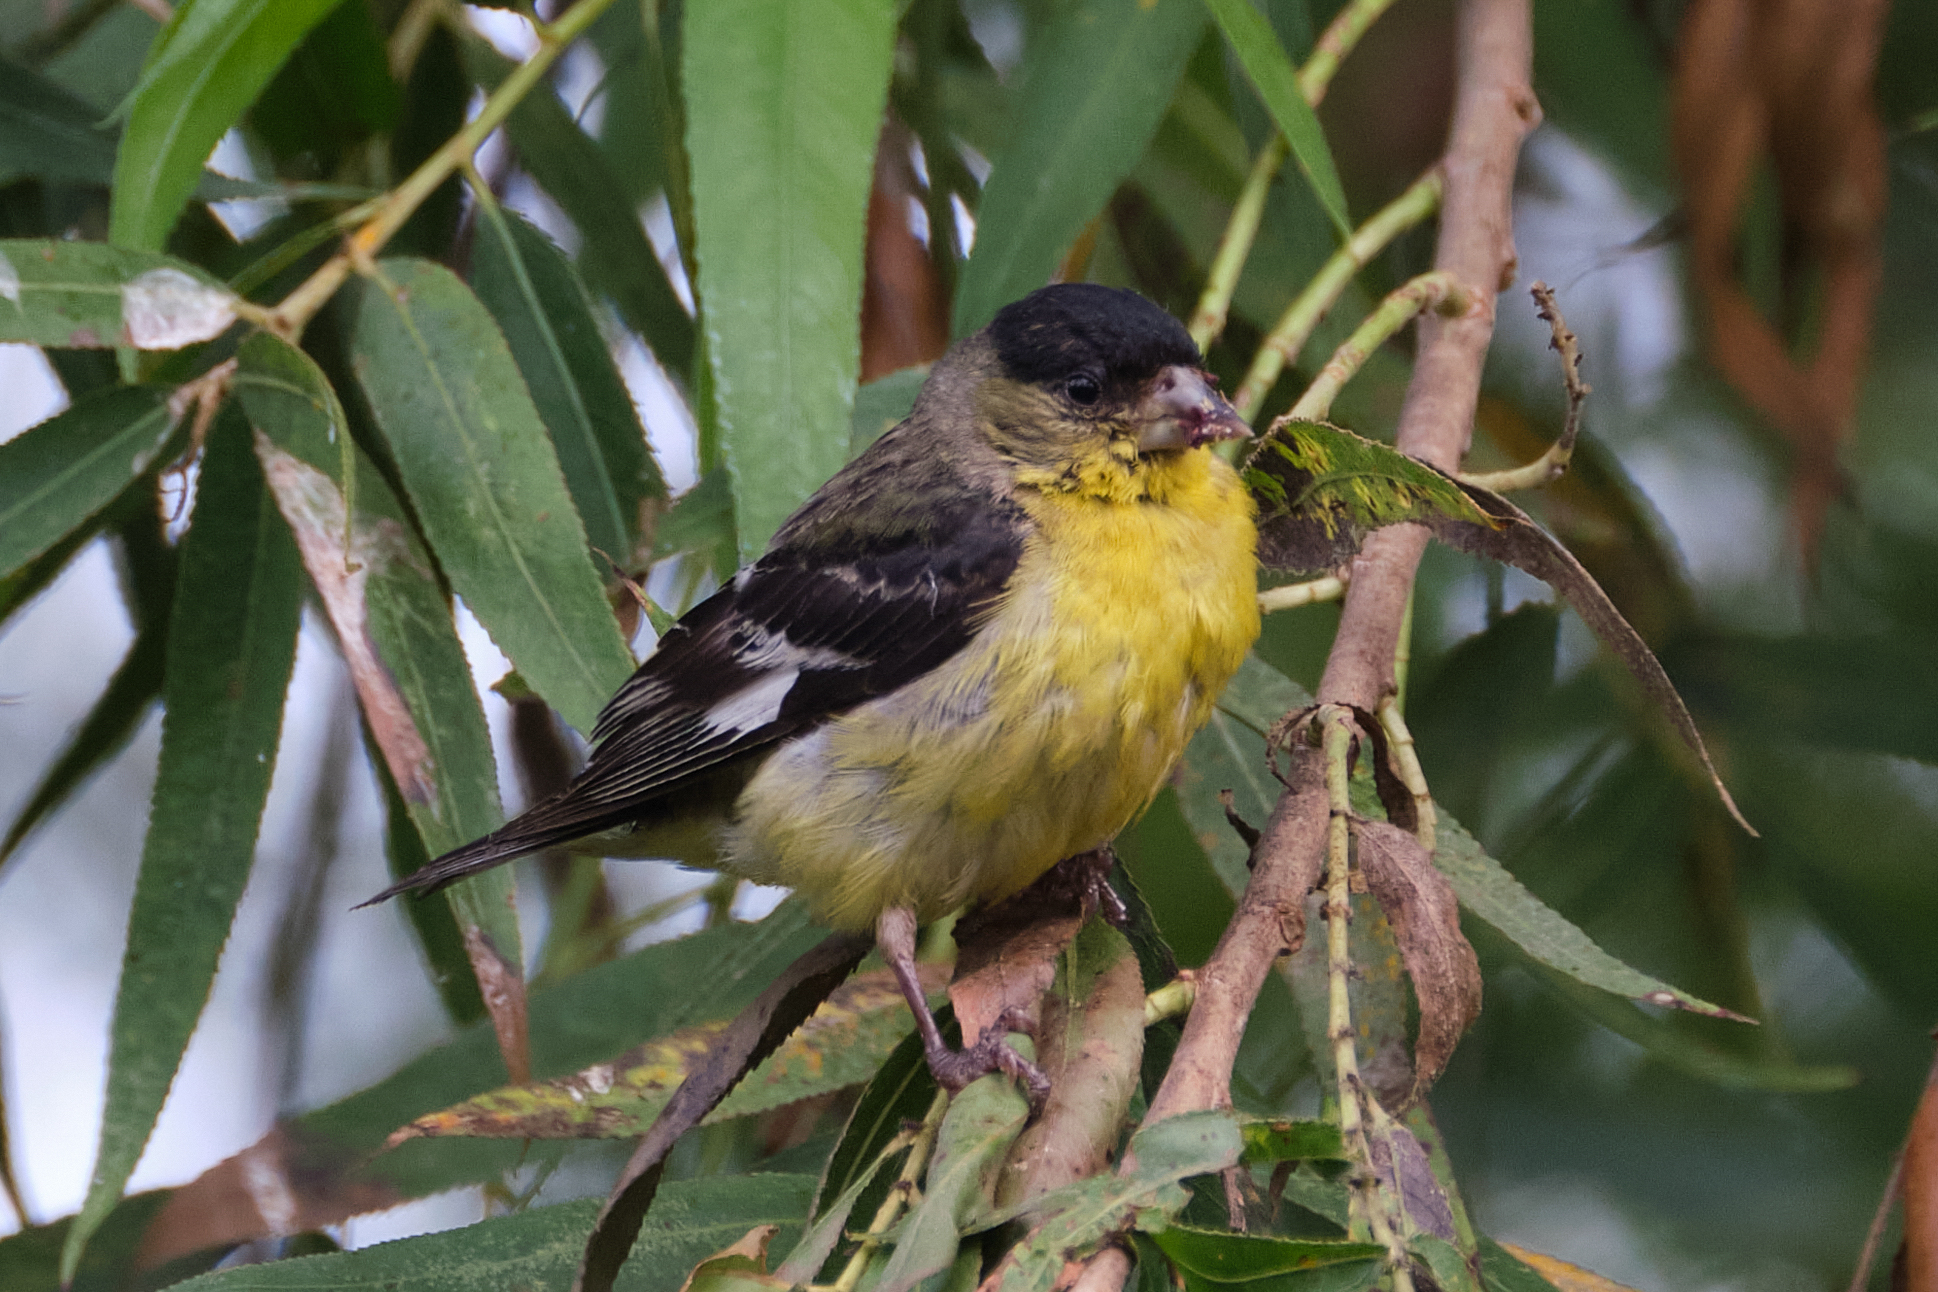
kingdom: Animalia
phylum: Chordata
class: Aves
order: Passeriformes
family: Fringillidae
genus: Spinus
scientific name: Spinus psaltria
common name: Lesser goldfinch
